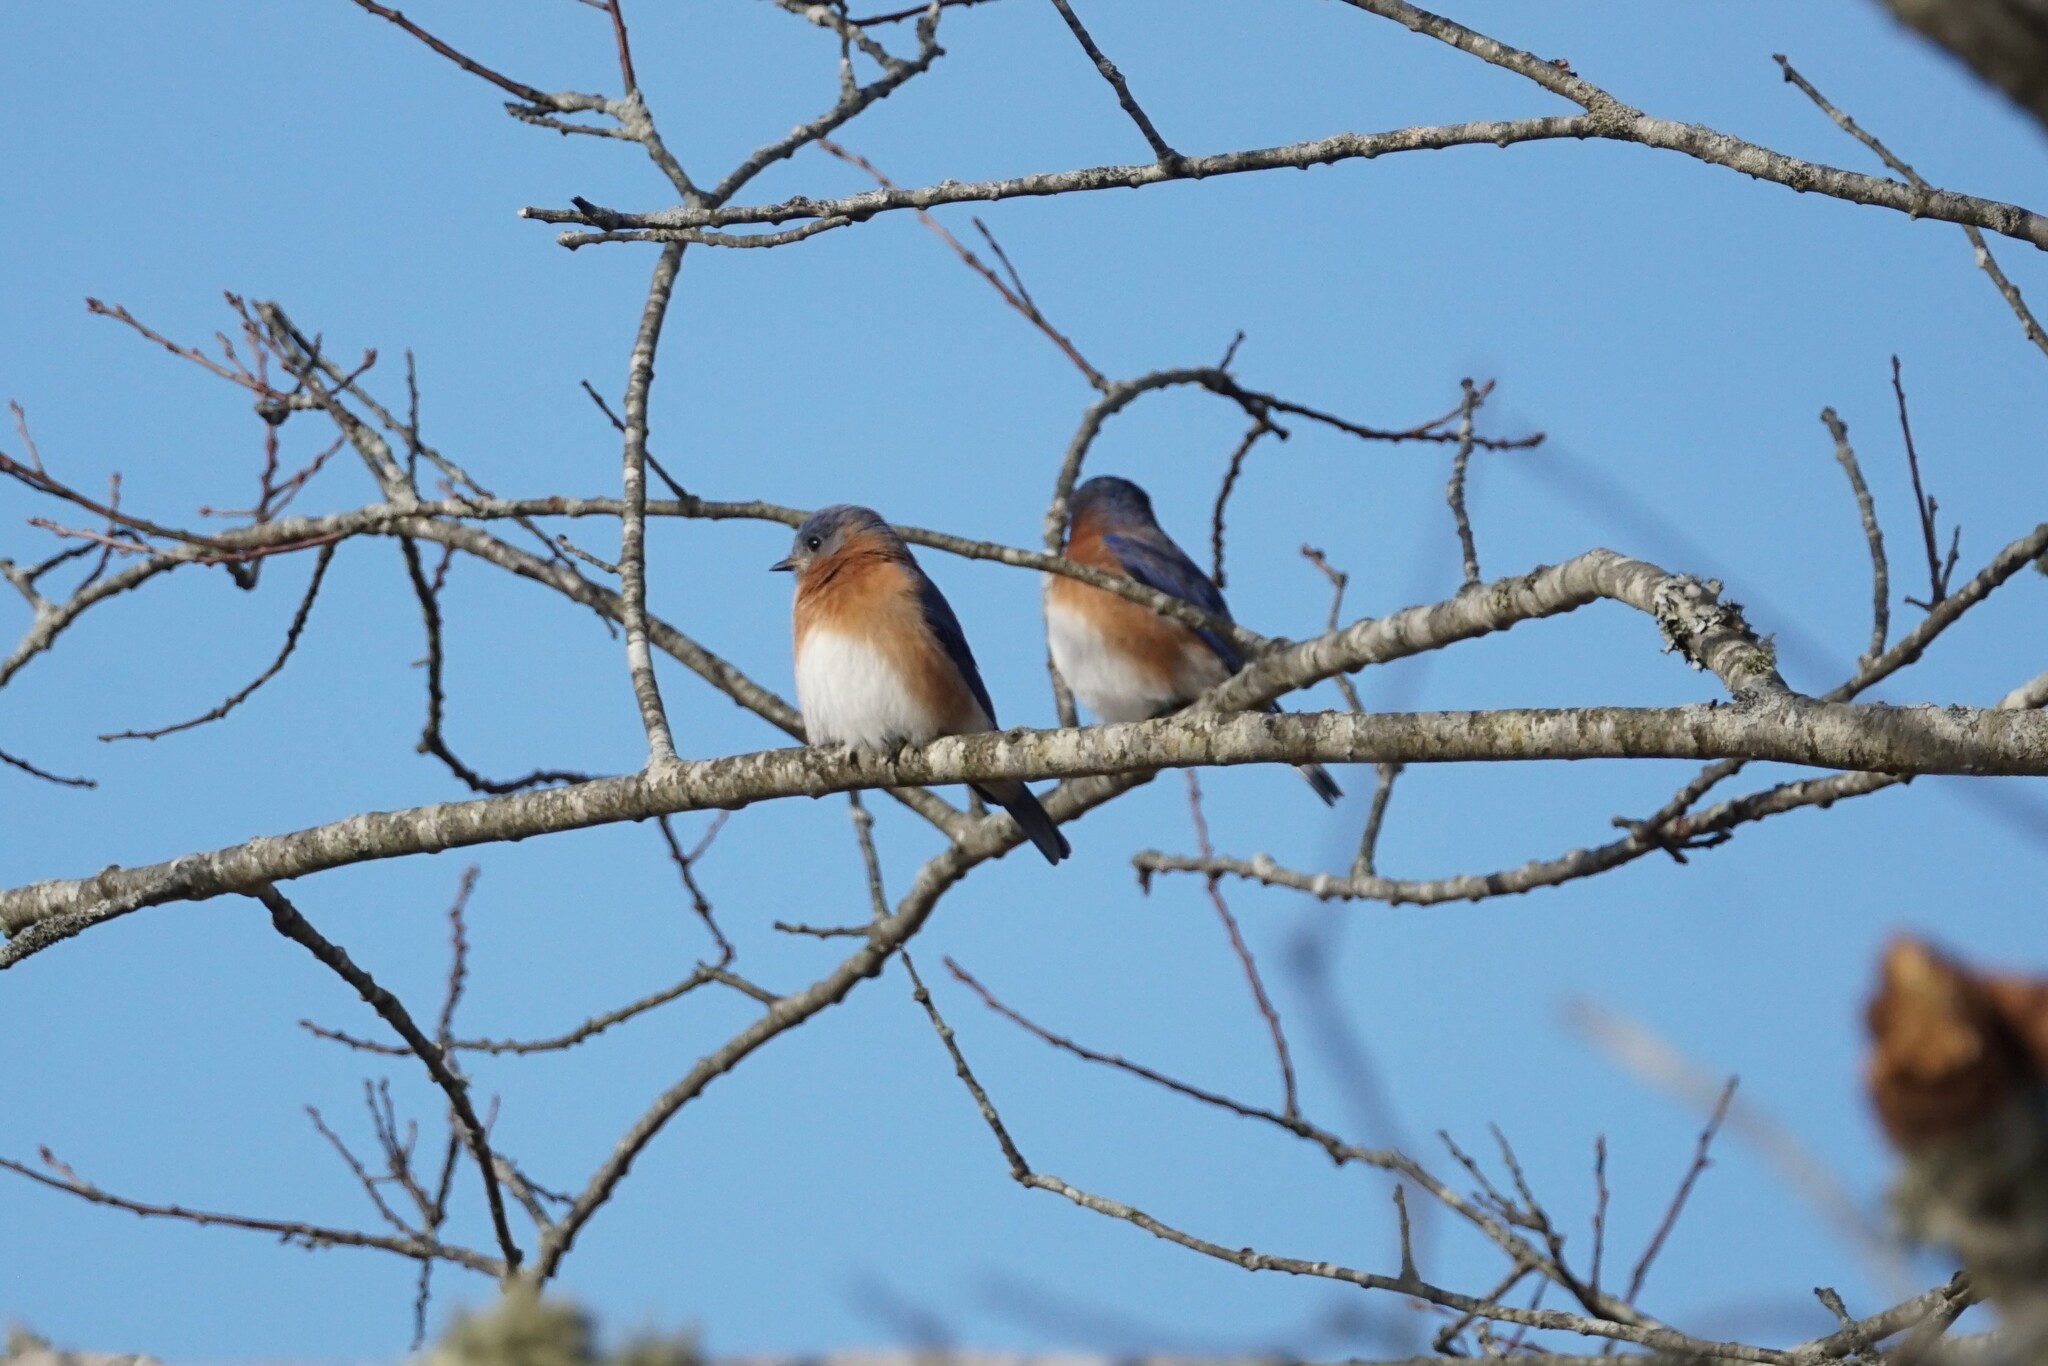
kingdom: Animalia
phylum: Chordata
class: Aves
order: Passeriformes
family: Turdidae
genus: Sialia
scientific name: Sialia sialis
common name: Eastern bluebird
